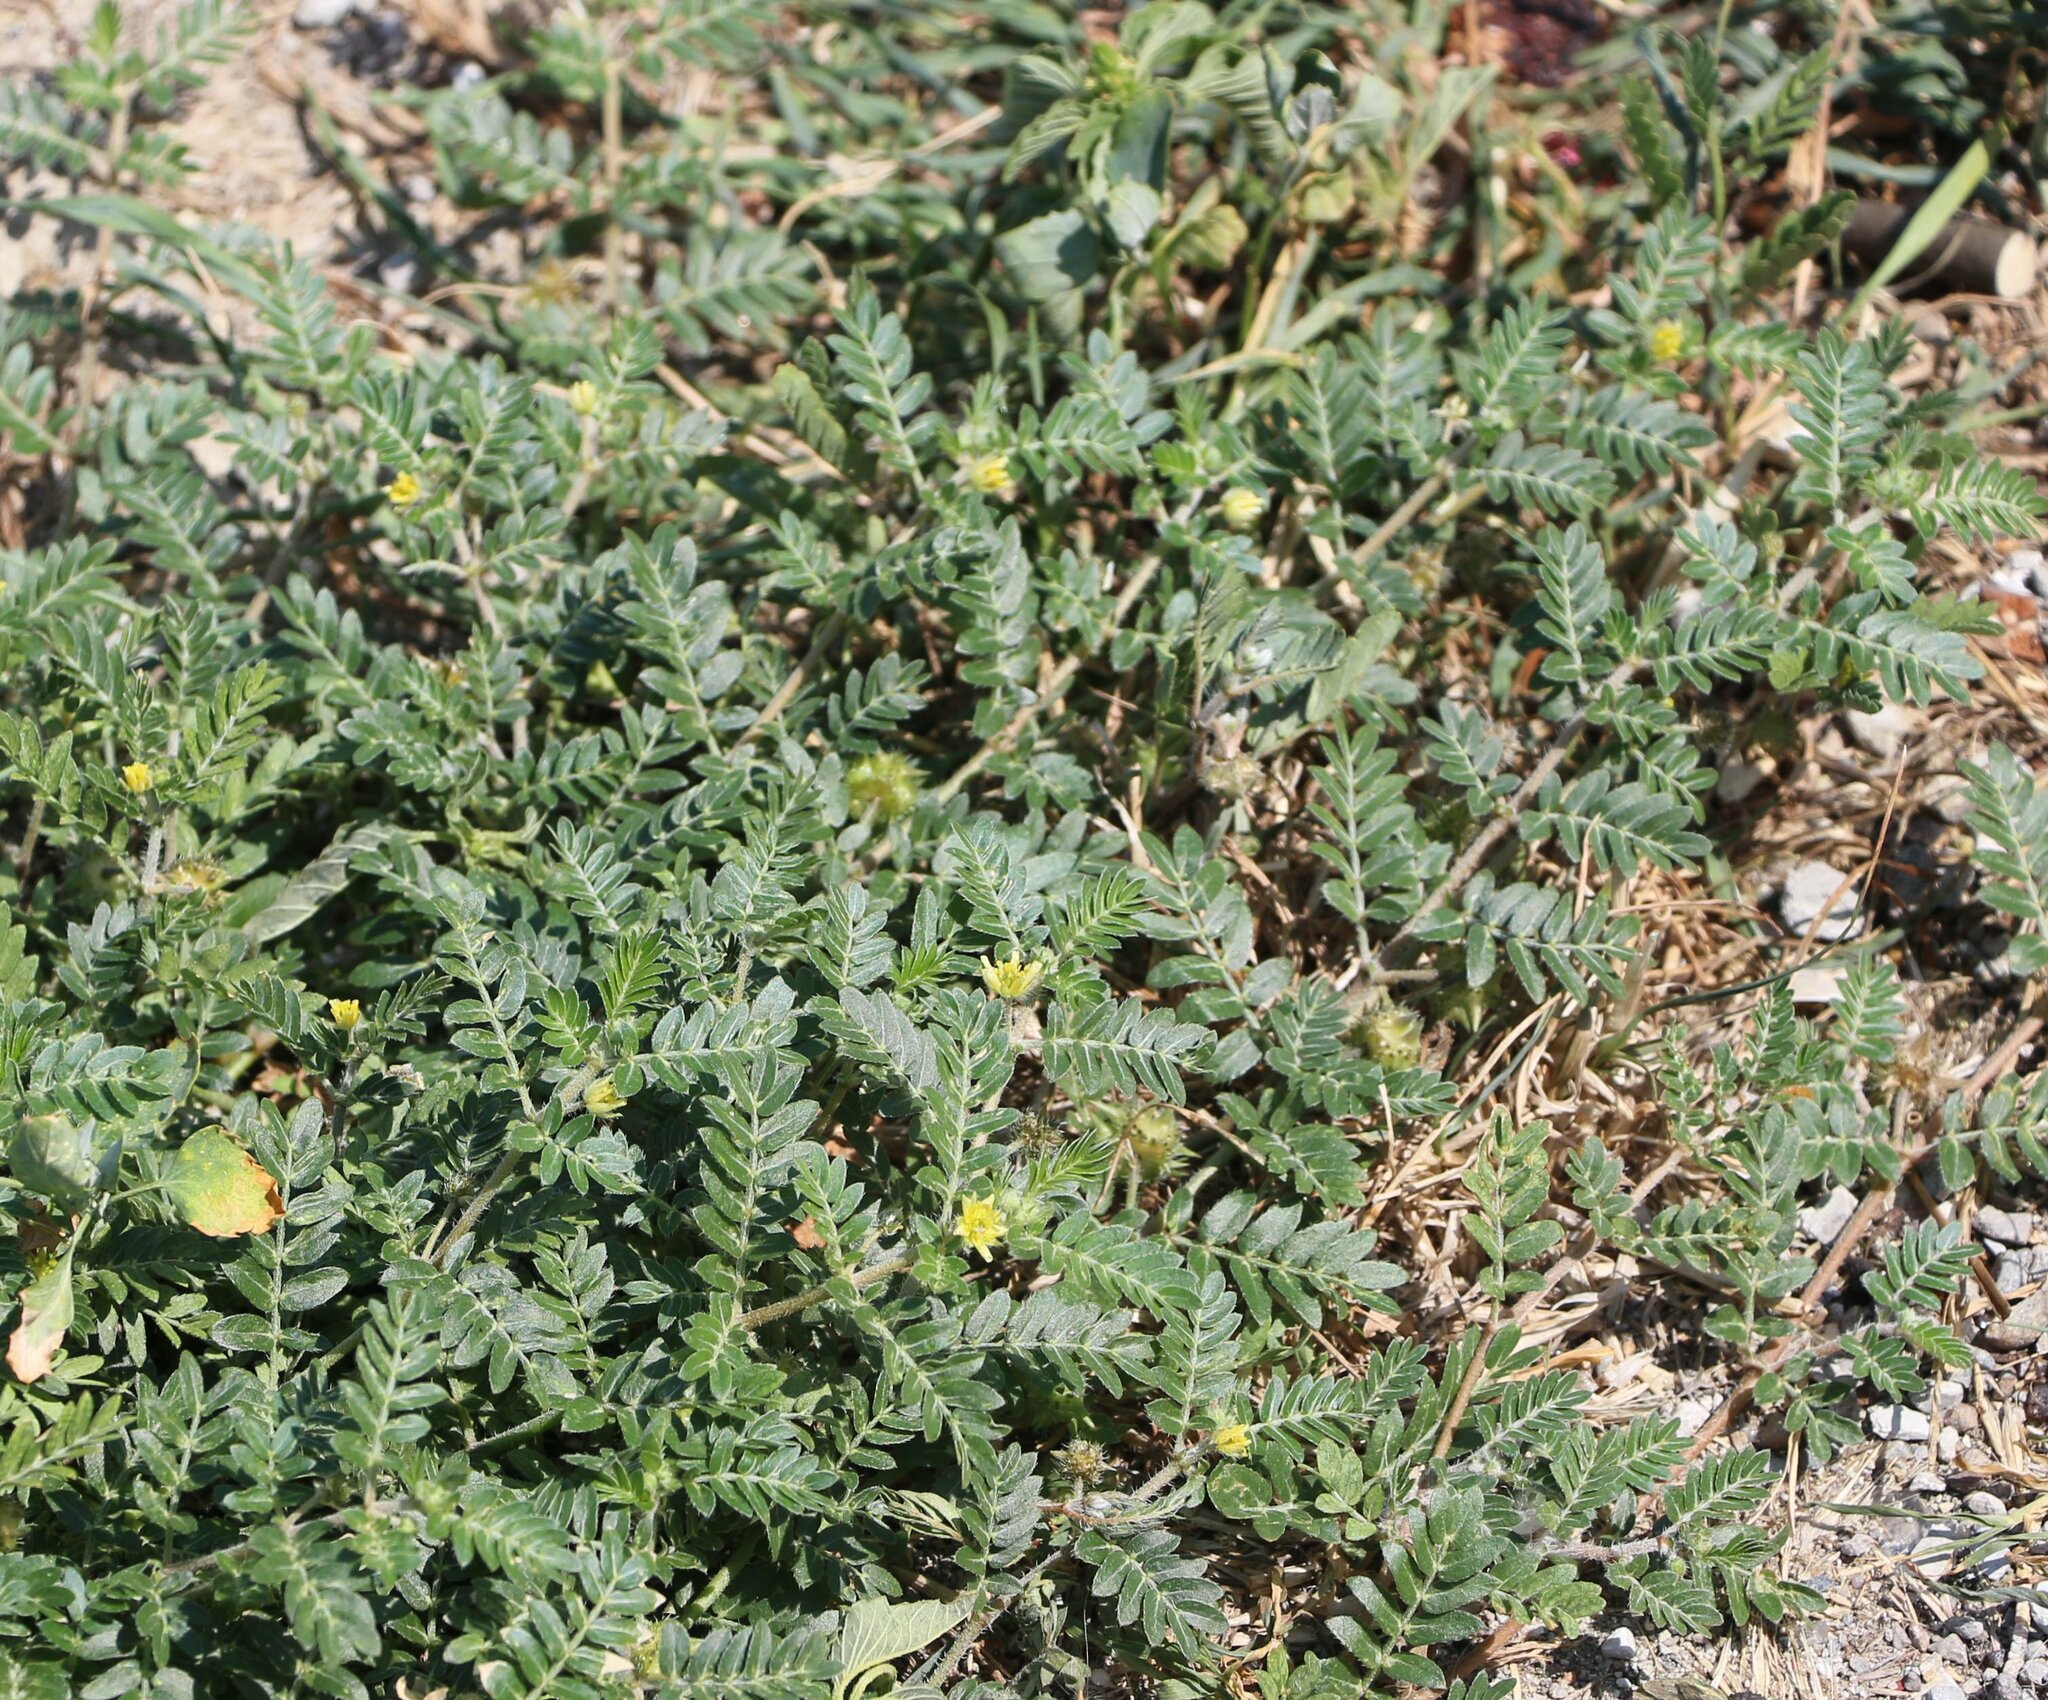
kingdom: Plantae
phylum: Tracheophyta
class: Magnoliopsida
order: Zygophyllales
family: Zygophyllaceae
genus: Tribulus
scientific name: Tribulus terrestris
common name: Puncturevine
